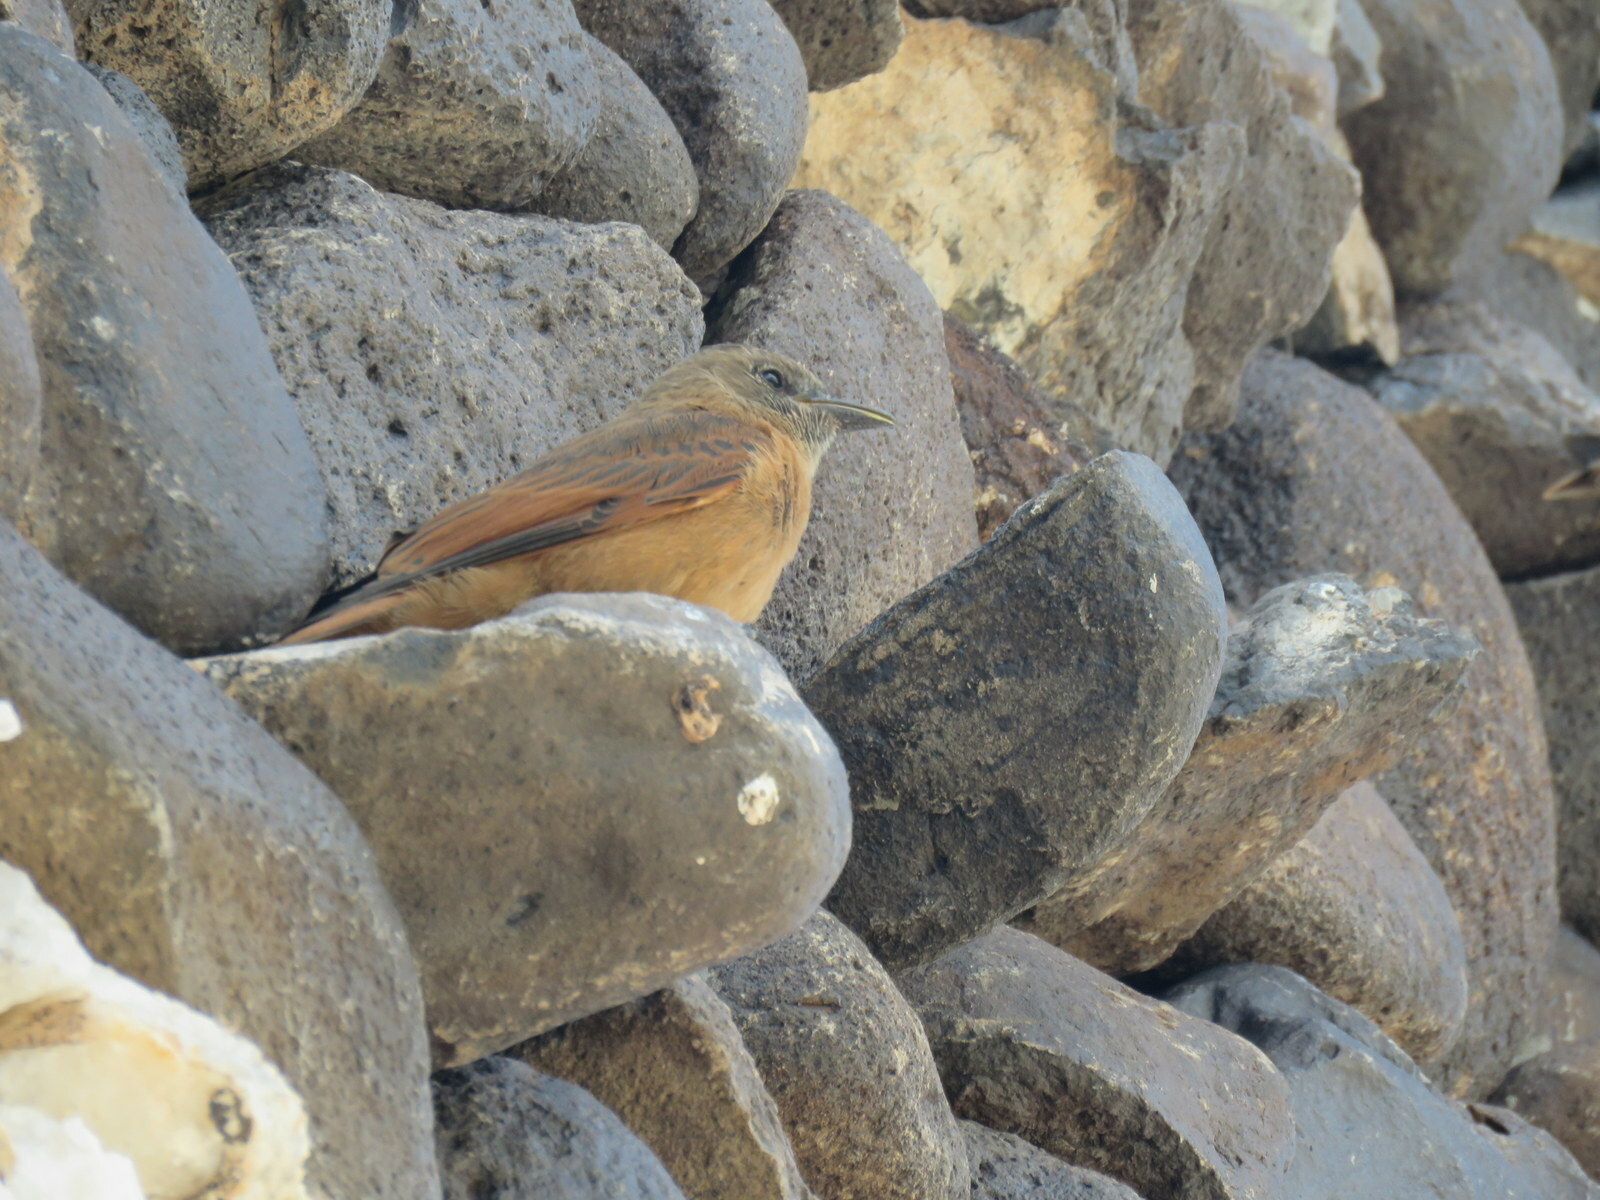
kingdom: Animalia
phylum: Chordata
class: Aves
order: Passeriformes
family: Tyrannidae
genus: Hirundinea
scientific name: Hirundinea ferruginea
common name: Cliff flycatcher
